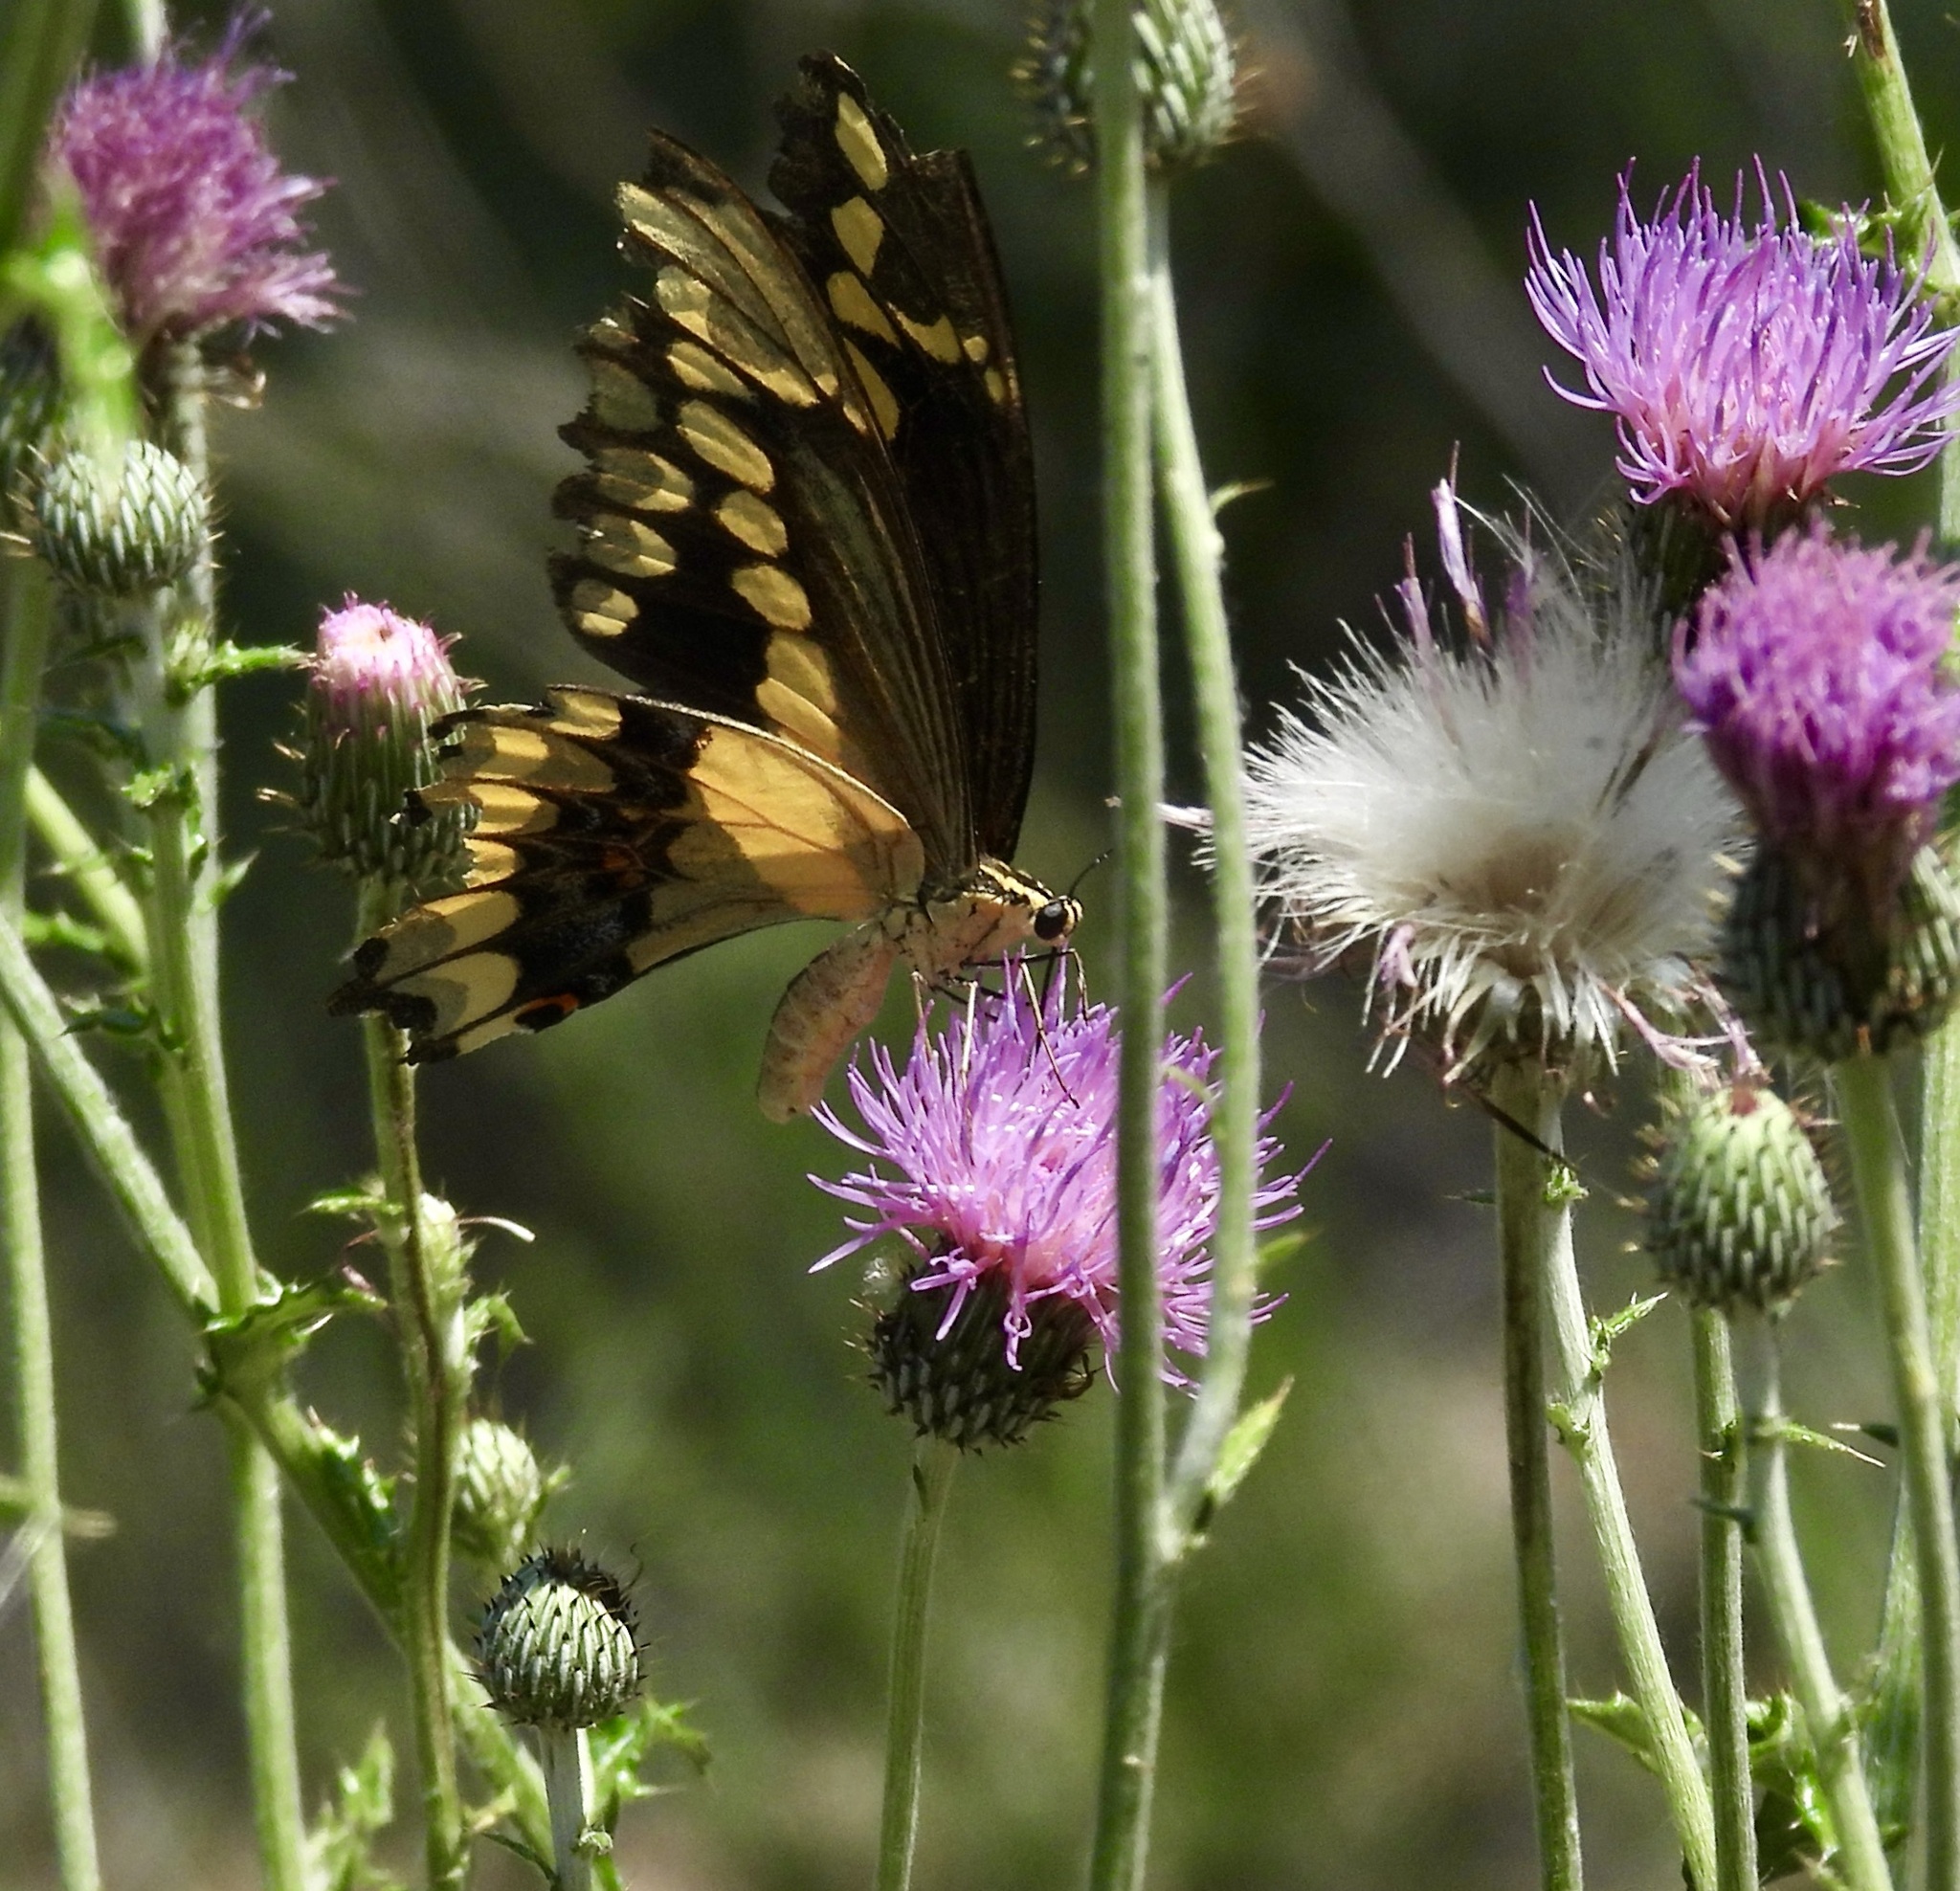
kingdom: Animalia
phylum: Arthropoda
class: Insecta
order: Lepidoptera
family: Papilionidae
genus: Papilio
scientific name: Papilio rumiko
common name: Western giant swallowtail
